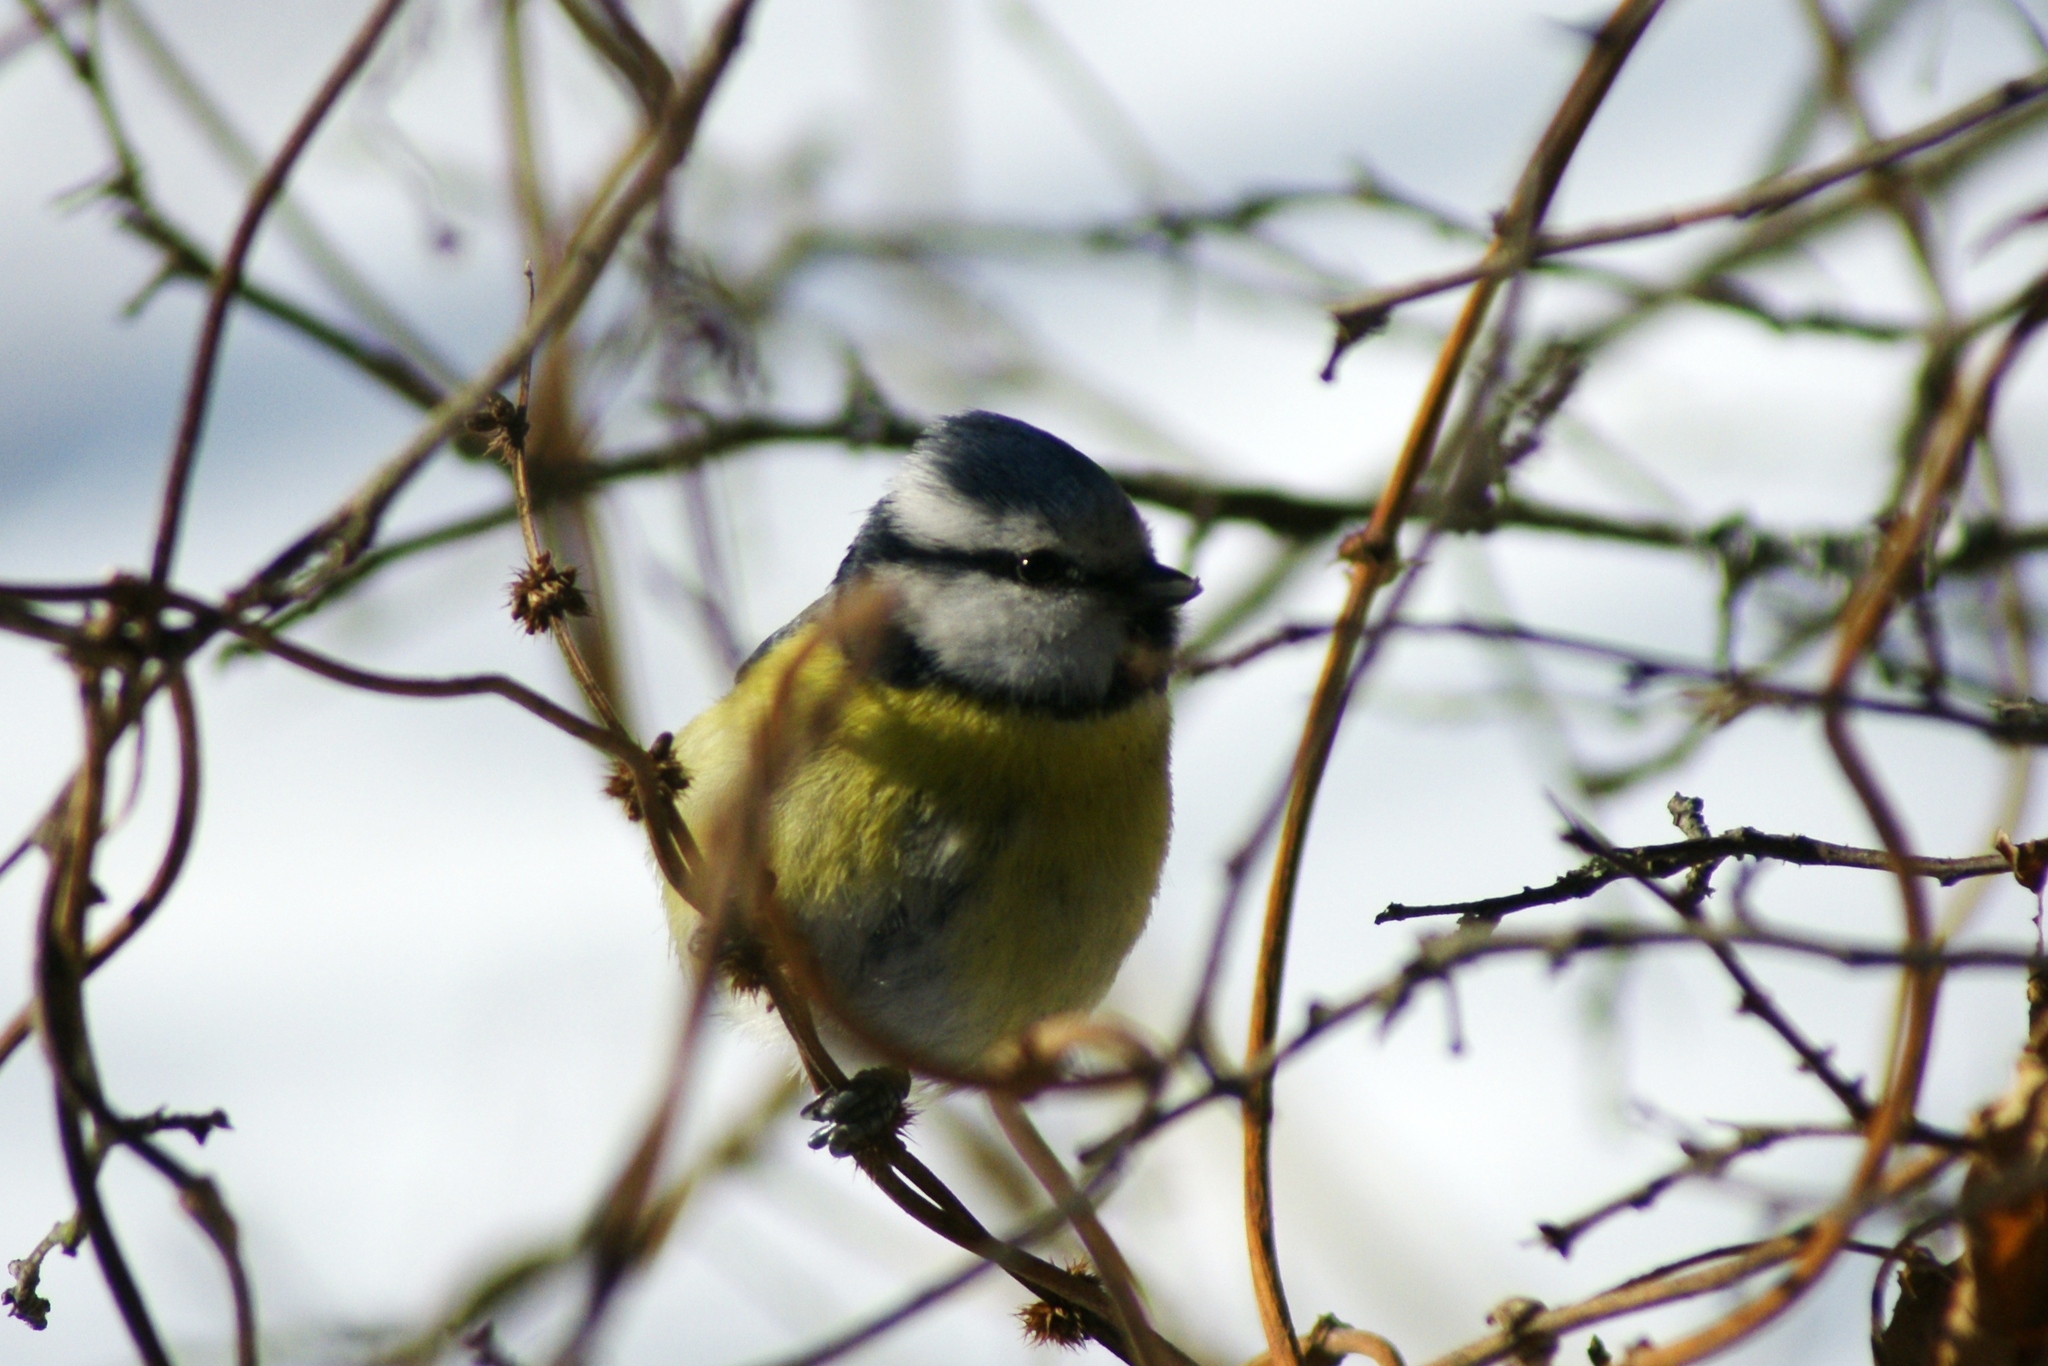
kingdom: Animalia
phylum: Chordata
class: Aves
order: Passeriformes
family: Paridae
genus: Cyanistes
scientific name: Cyanistes caeruleus
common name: Eurasian blue tit
